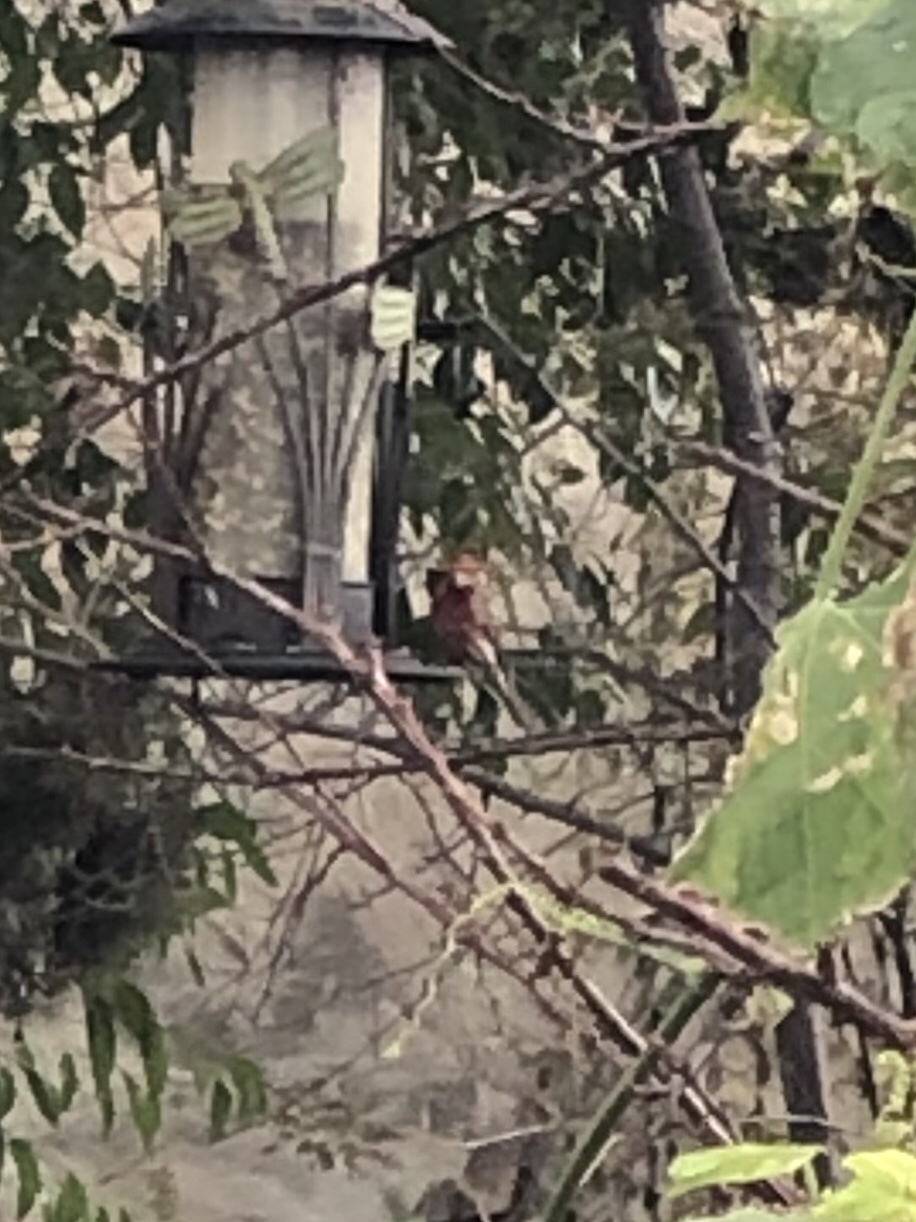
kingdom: Animalia
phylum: Chordata
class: Aves
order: Passeriformes
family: Fringillidae
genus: Haemorhous
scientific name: Haemorhous mexicanus
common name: House finch
